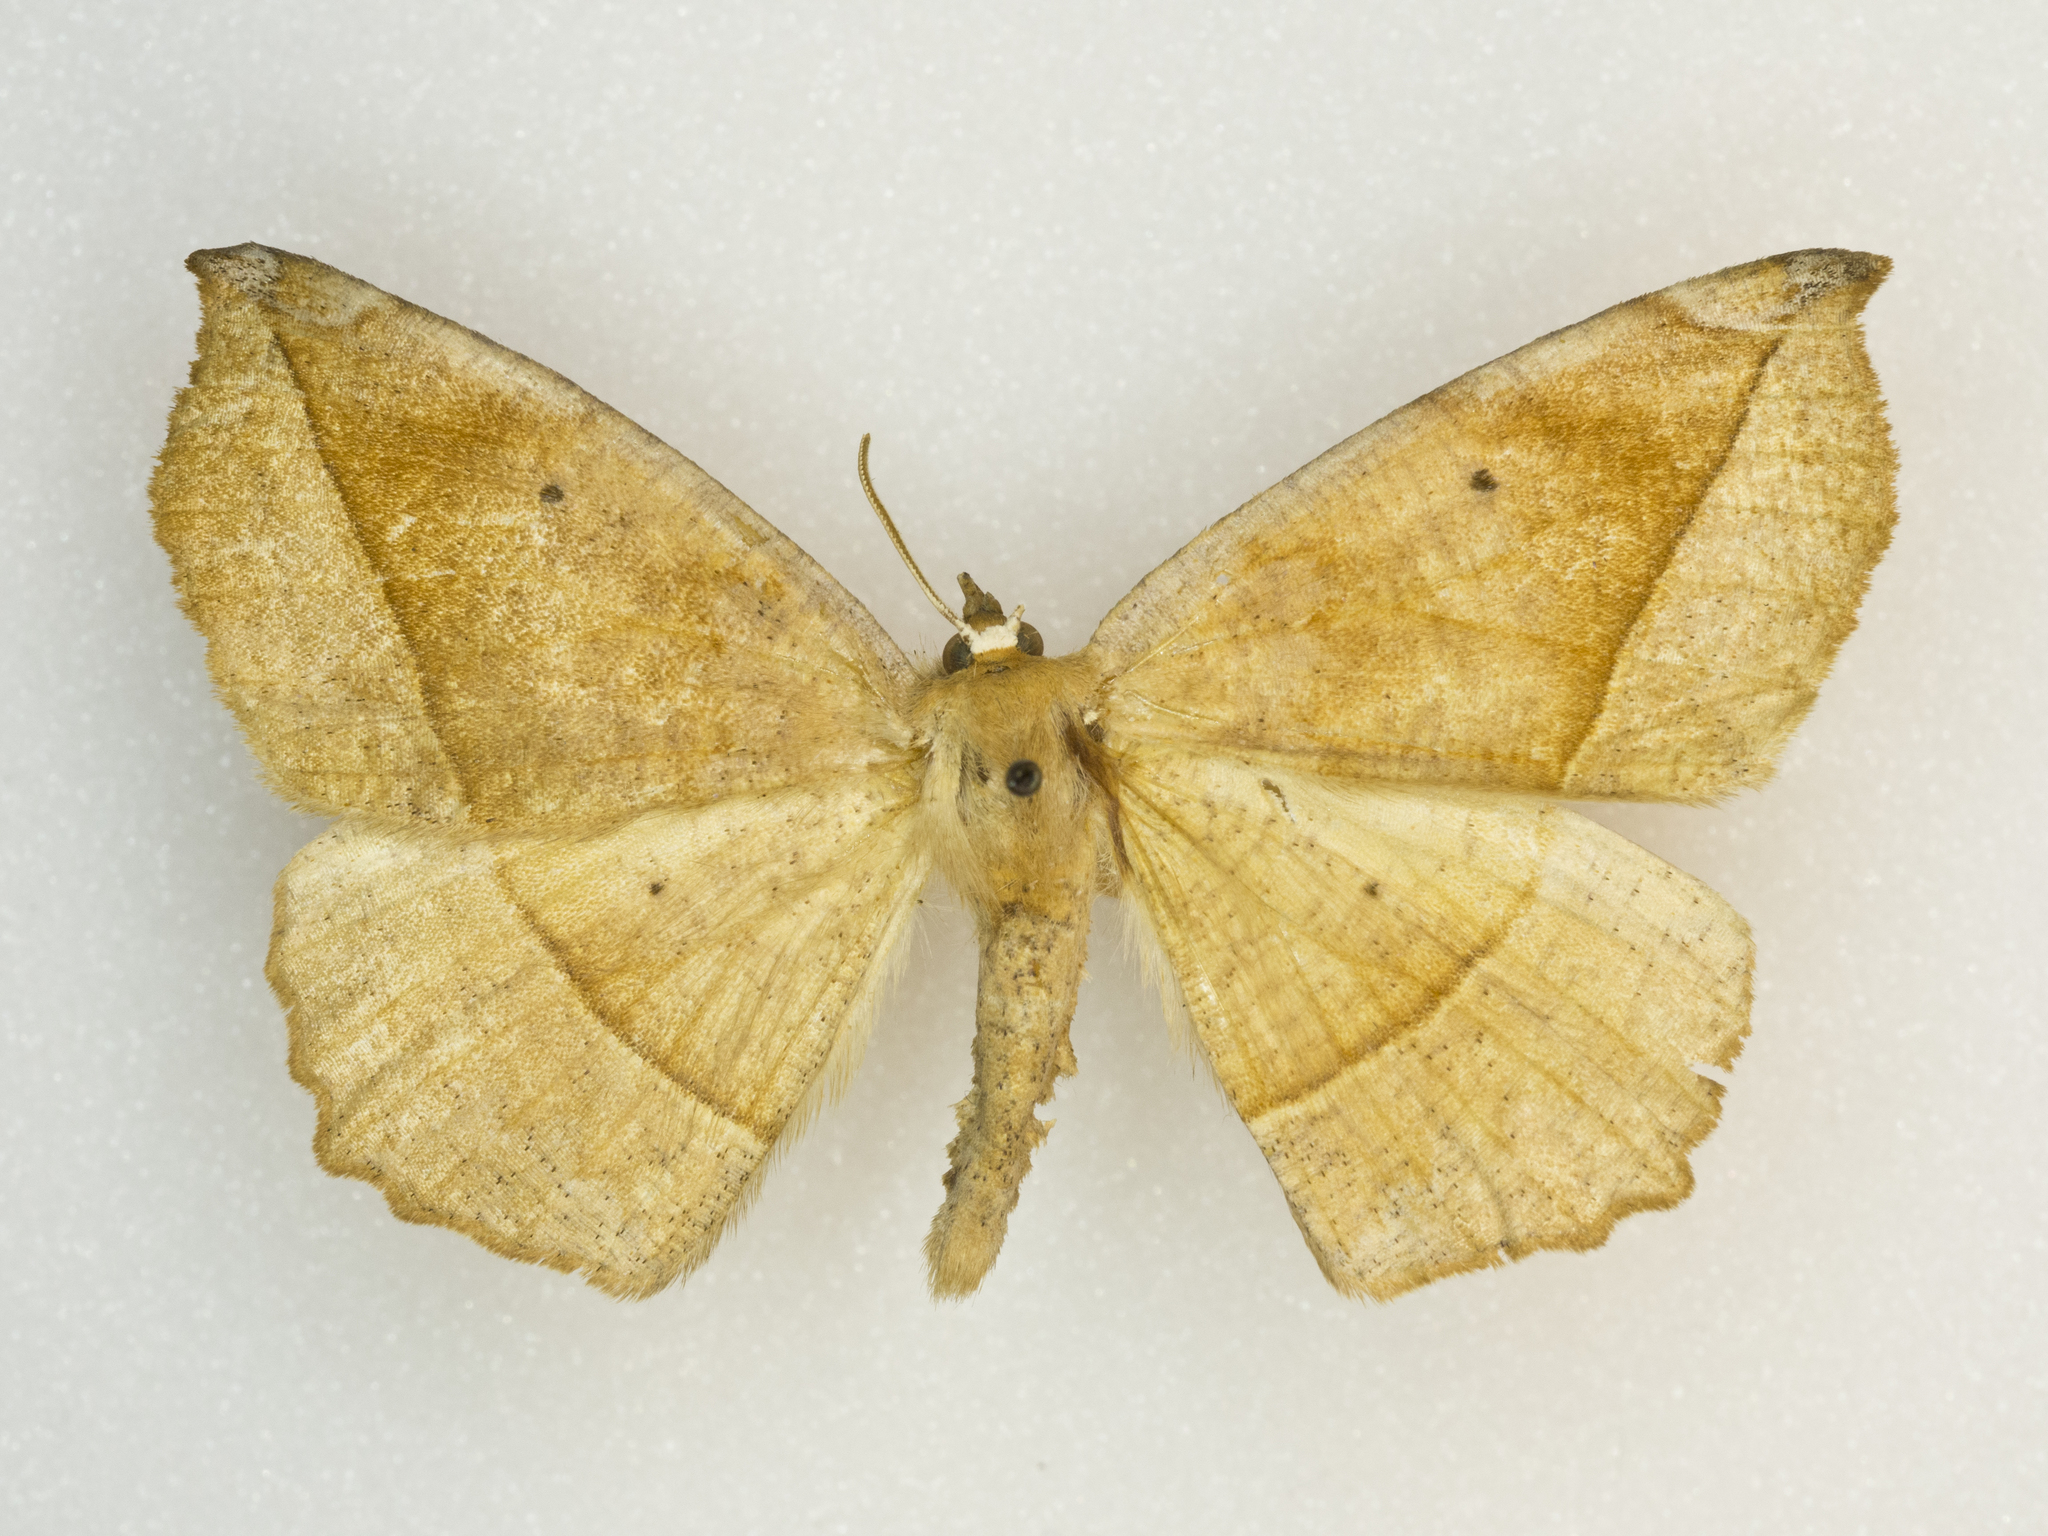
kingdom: Animalia
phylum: Arthropoda
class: Insecta
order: Lepidoptera
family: Geometridae
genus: Eutrapela
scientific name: Eutrapela clemataria
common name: Curved-toothed geometer
